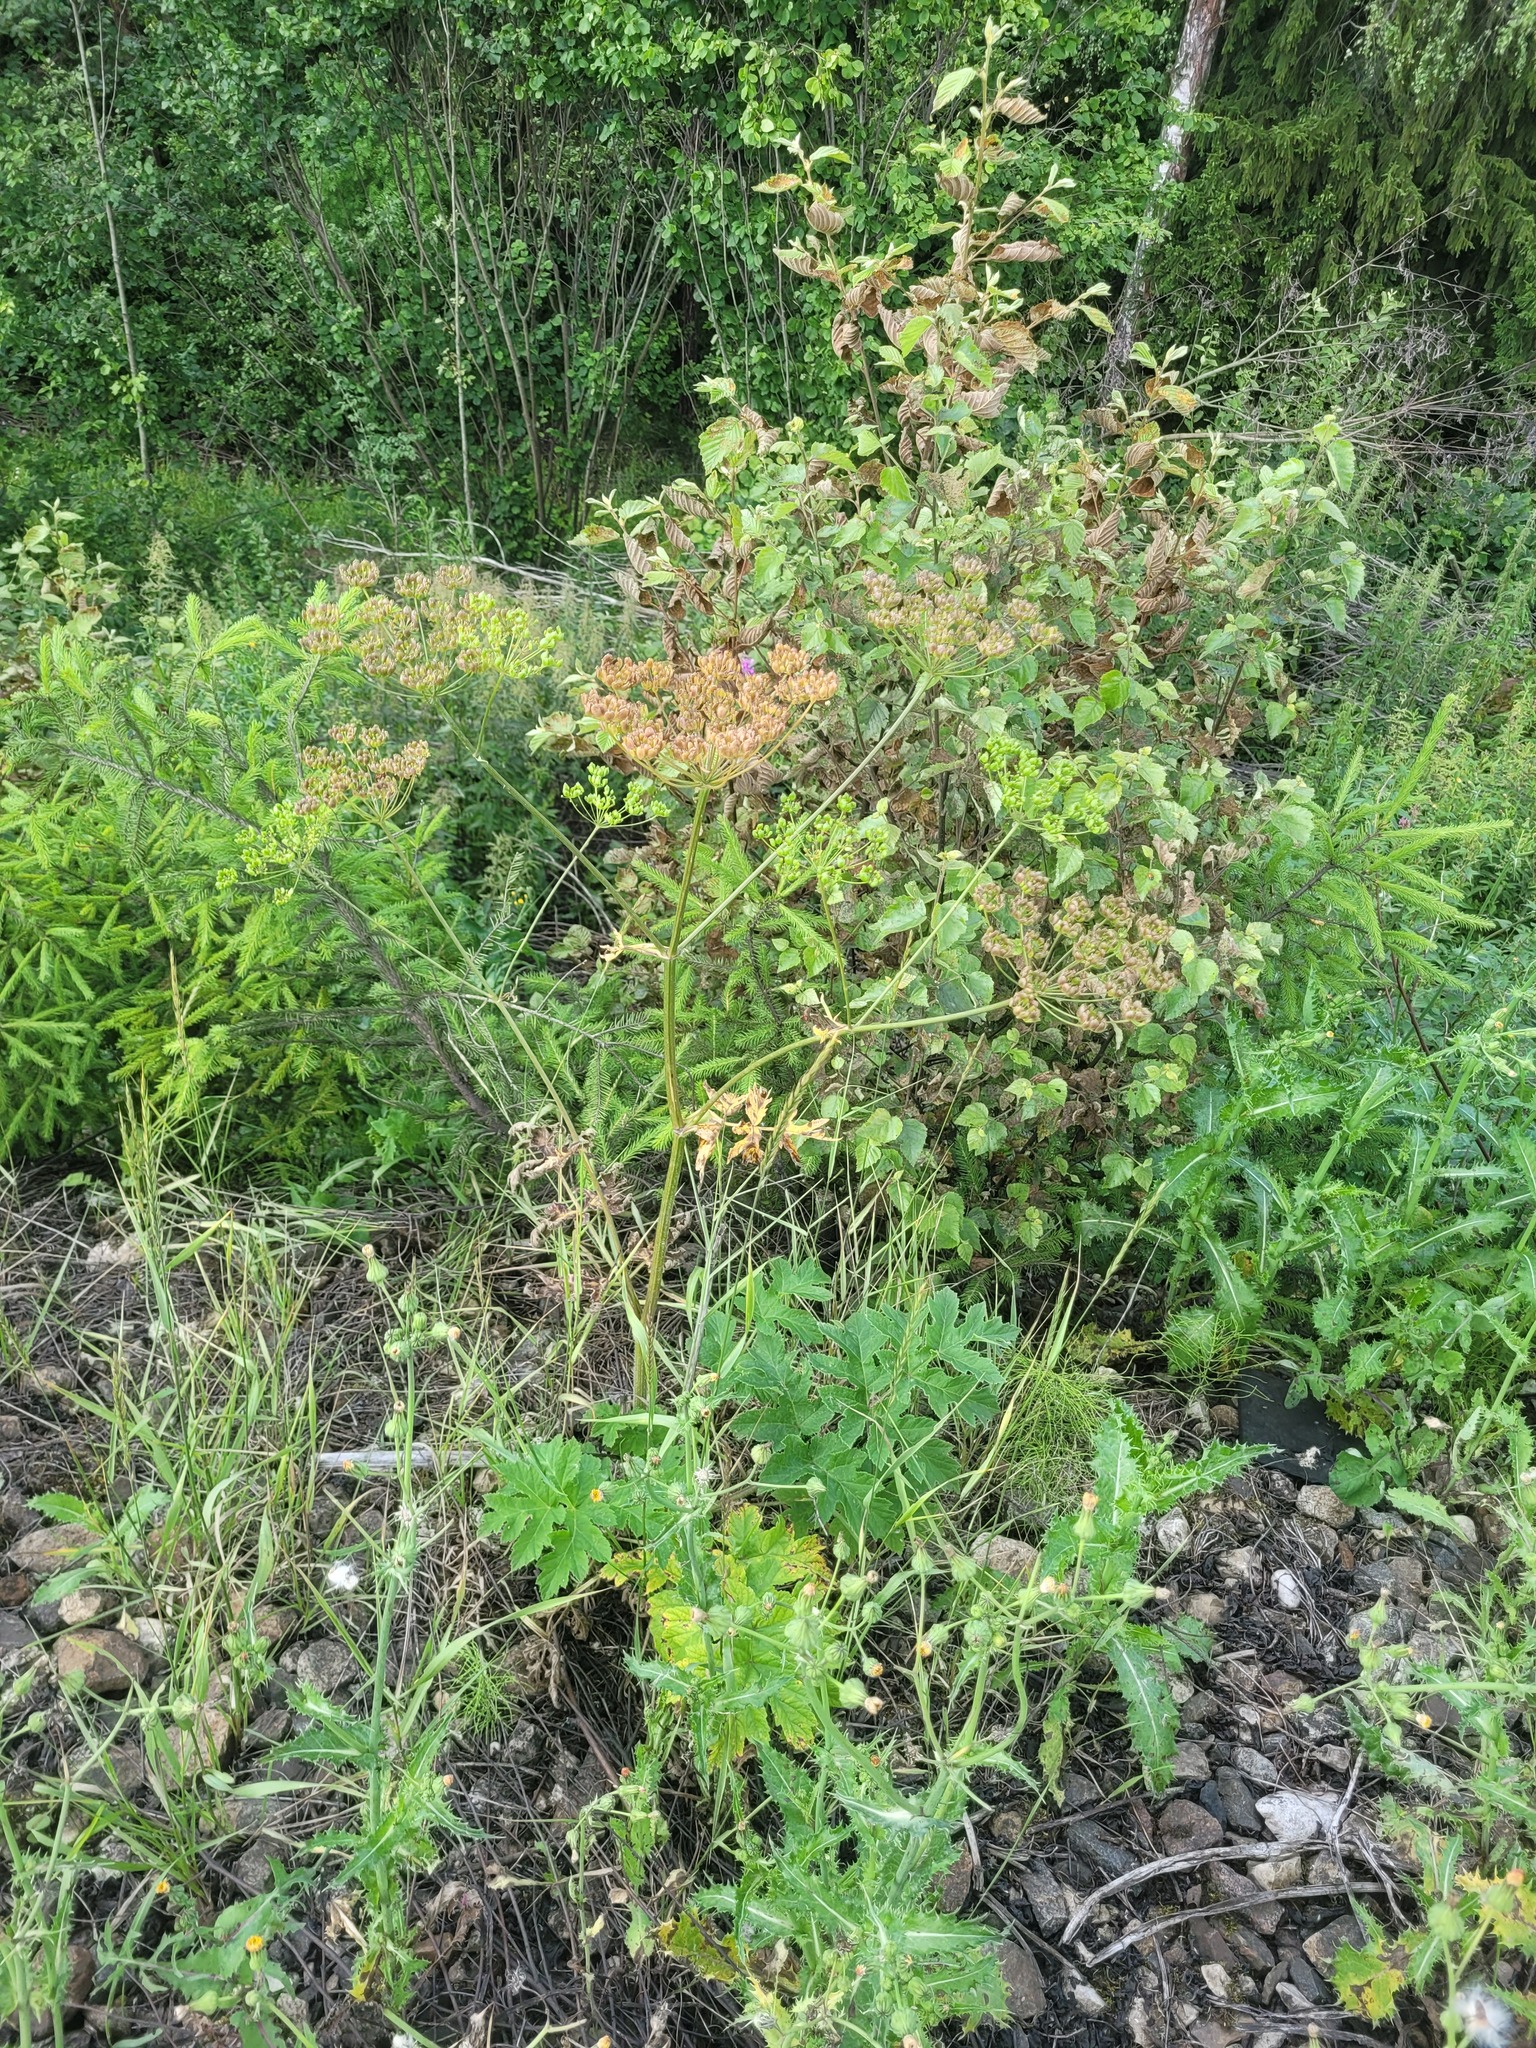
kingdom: Plantae
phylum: Tracheophyta
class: Magnoliopsida
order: Apiales
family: Apiaceae
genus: Heracleum
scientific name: Heracleum sphondylium
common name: Hogweed
